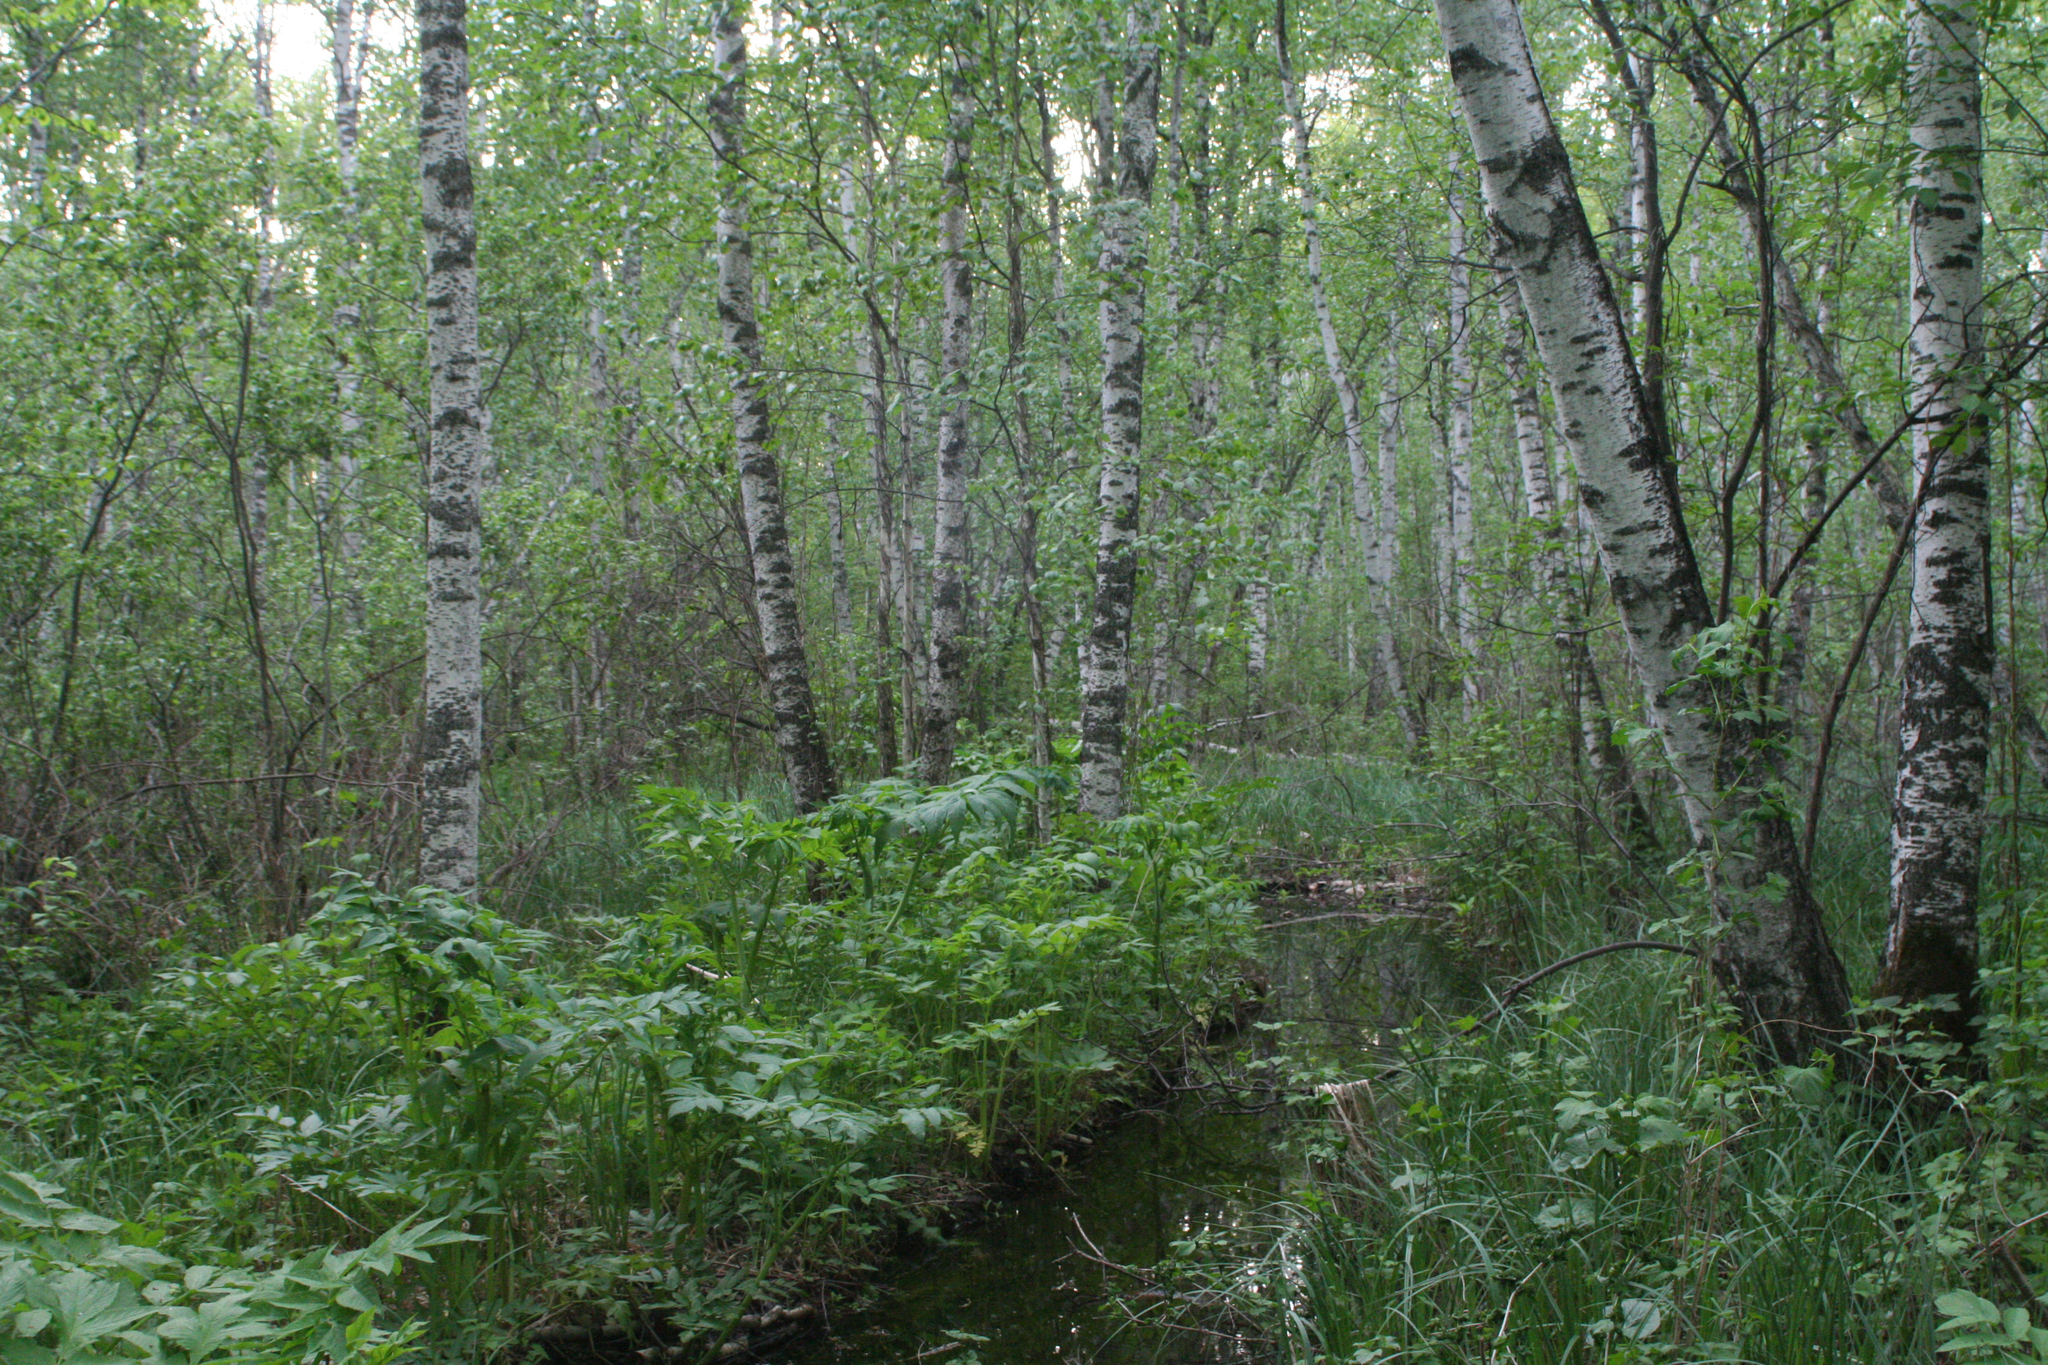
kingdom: Plantae
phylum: Tracheophyta
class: Magnoliopsida
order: Fagales
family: Betulaceae
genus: Betula
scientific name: Betula pubescens
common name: Downy birch
